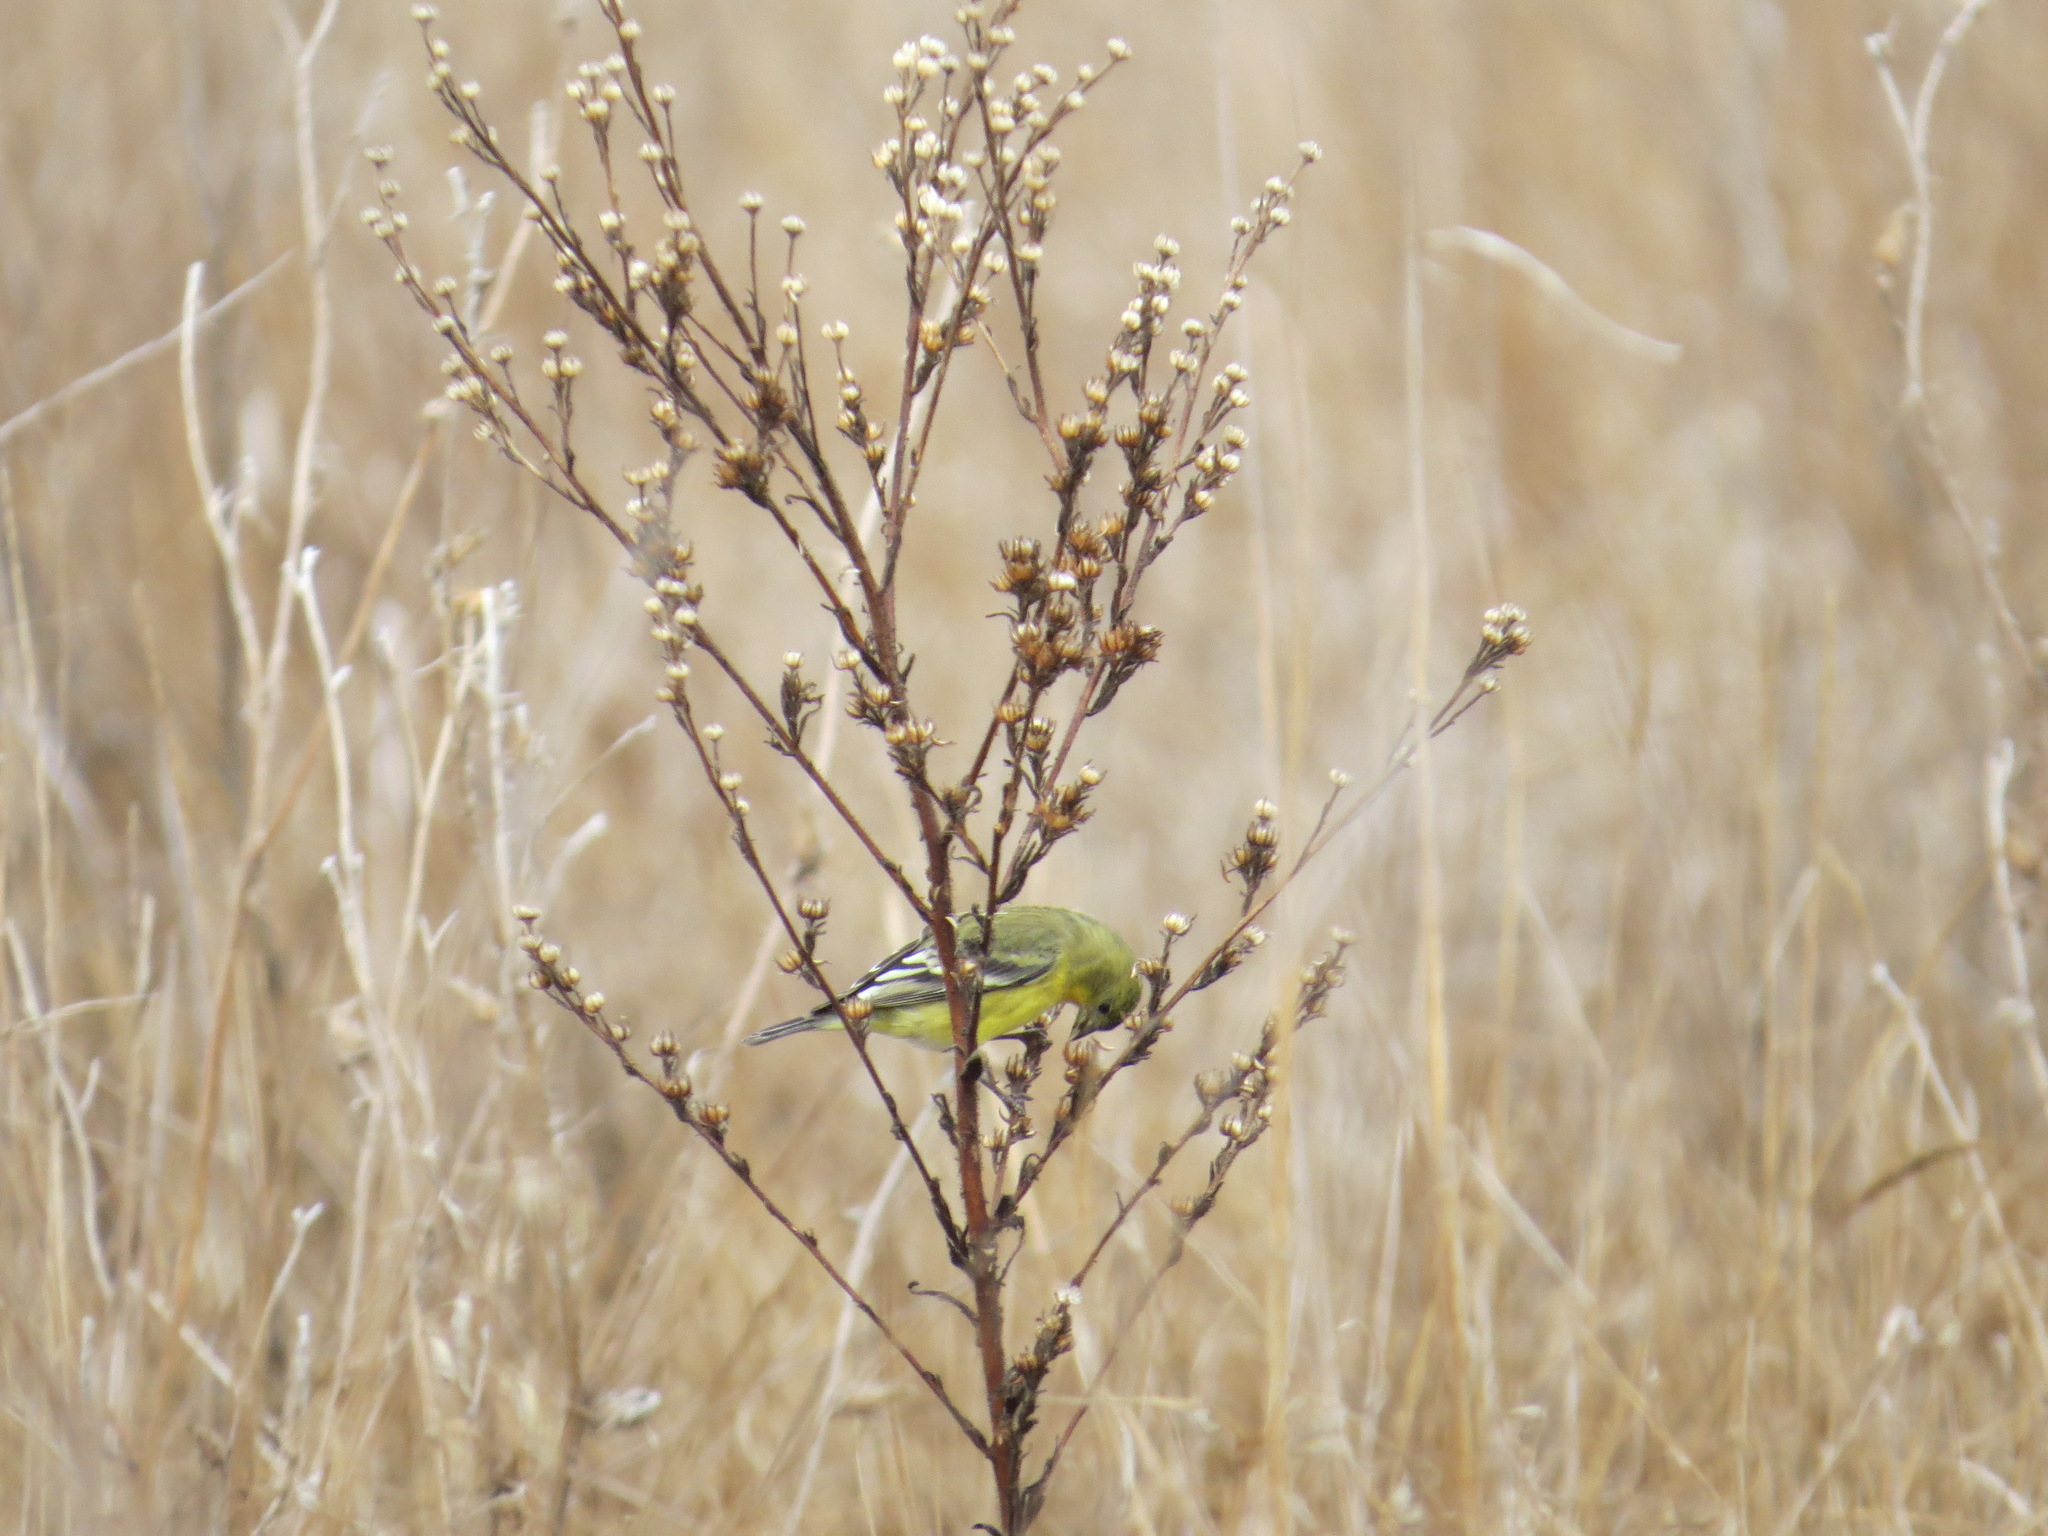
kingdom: Animalia
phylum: Chordata
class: Aves
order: Passeriformes
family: Fringillidae
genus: Spinus
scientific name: Spinus psaltria
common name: Lesser goldfinch
